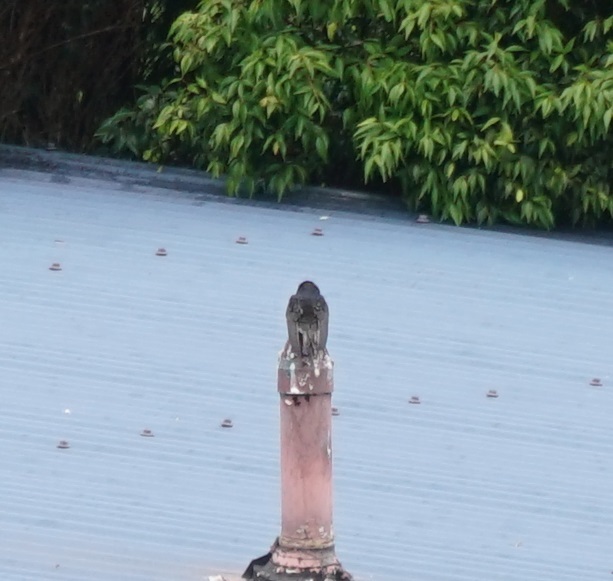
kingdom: Animalia
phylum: Chordata
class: Aves
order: Passeriformes
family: Hirundinidae
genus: Hirundo
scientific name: Hirundo neoxena
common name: Welcome swallow
